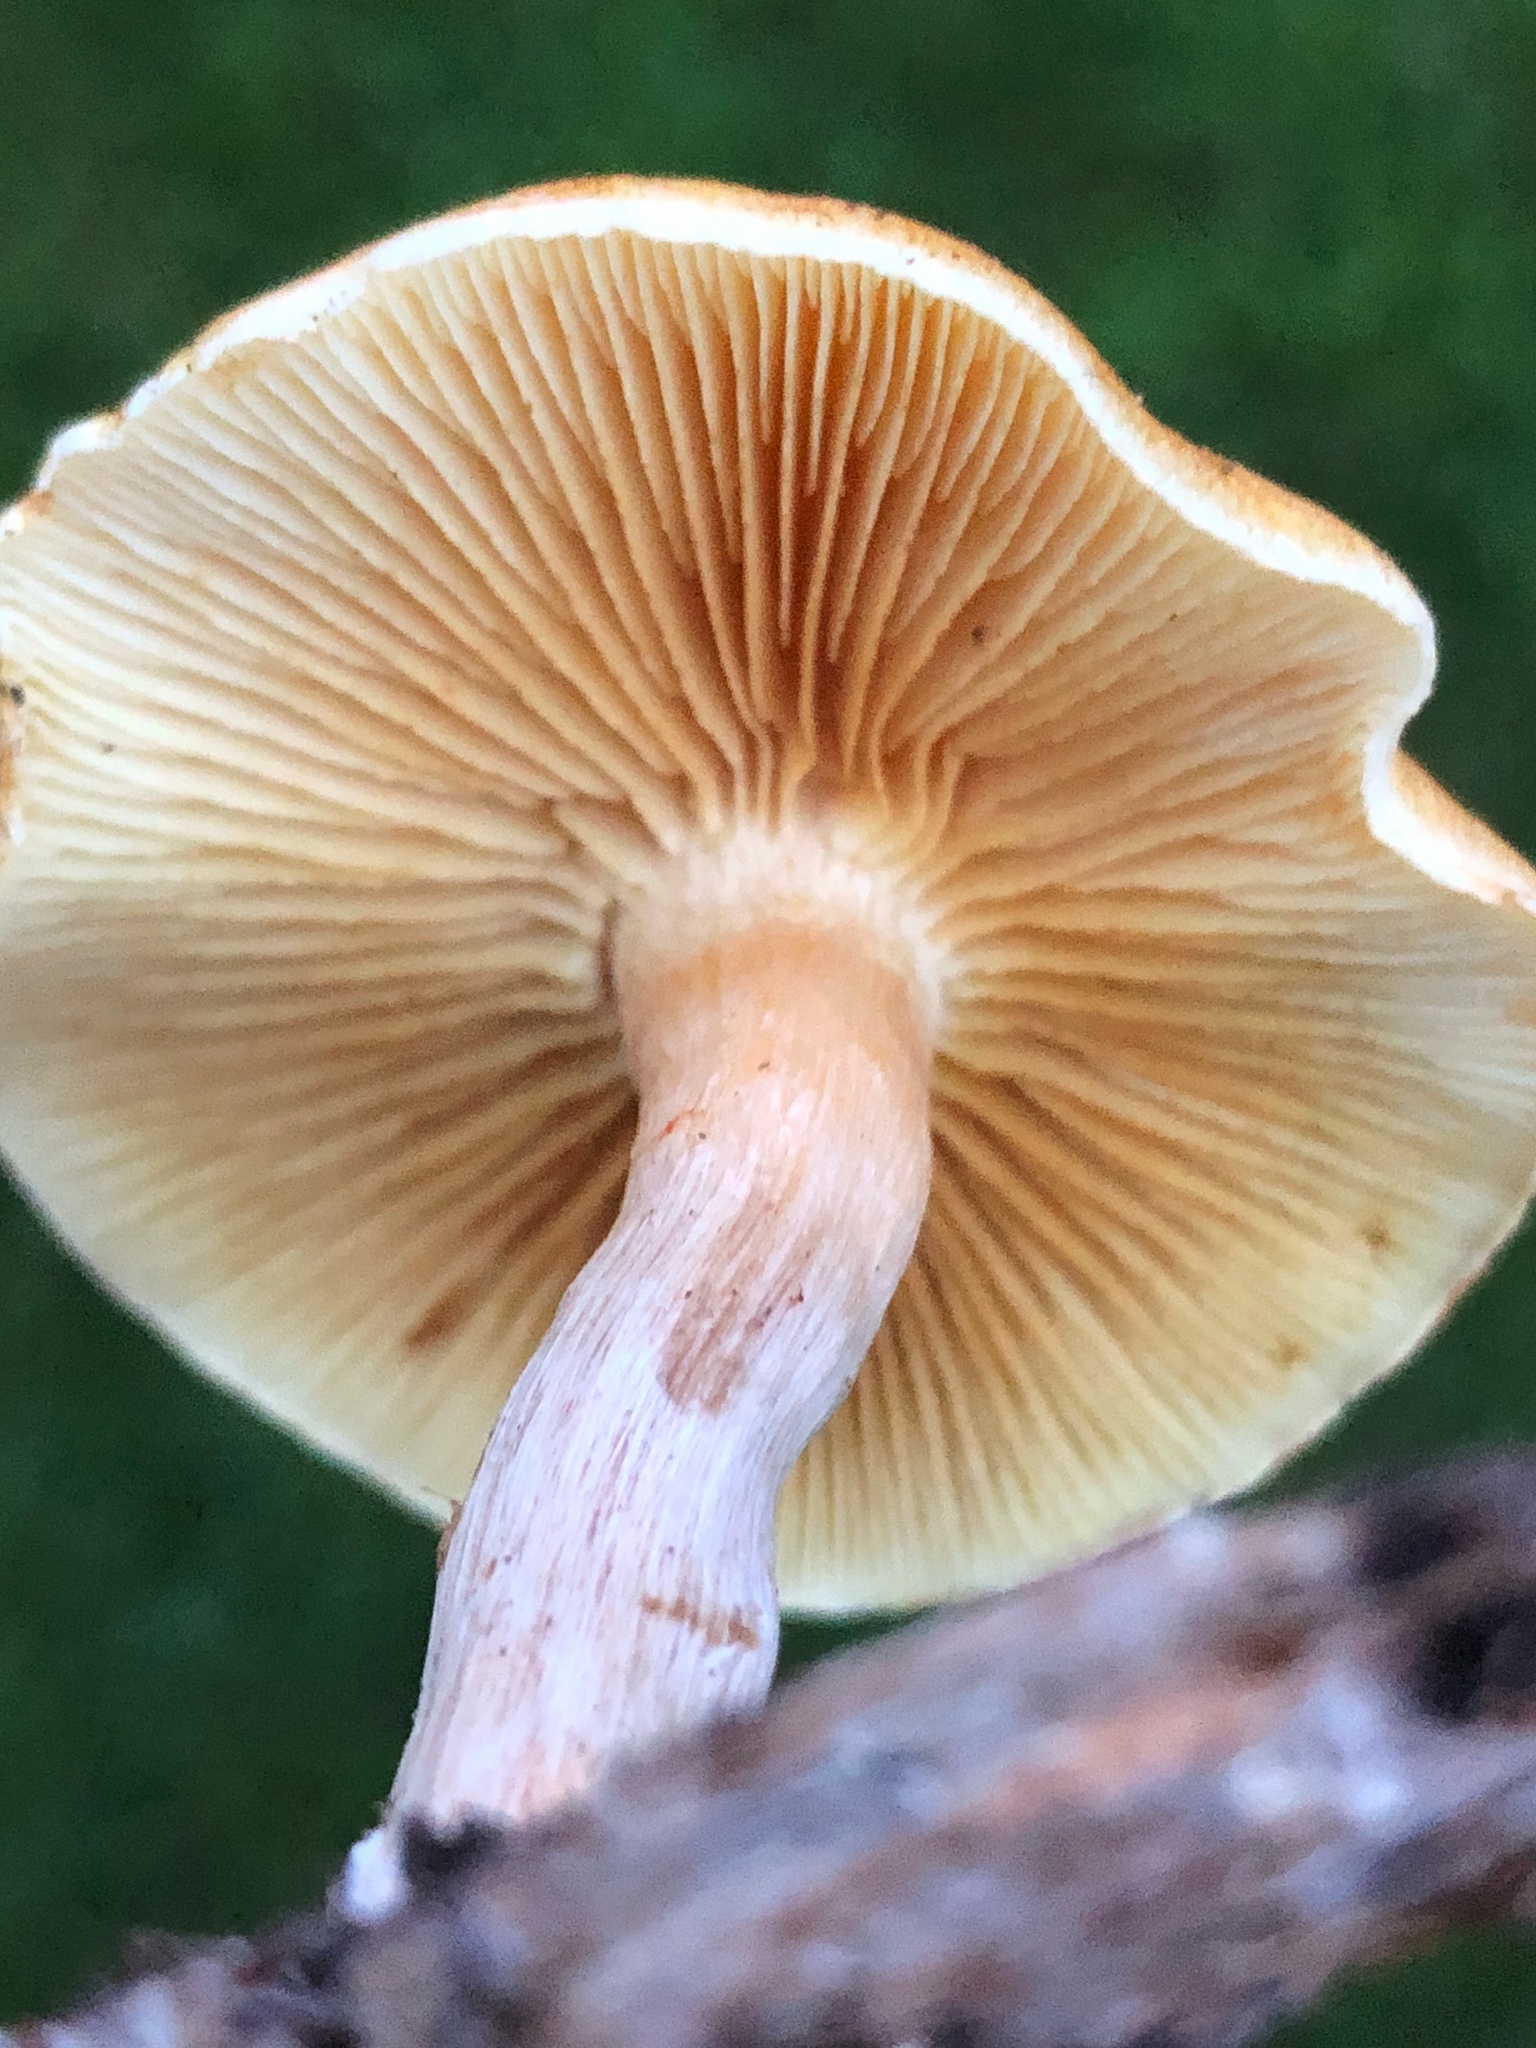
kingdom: Fungi
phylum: Basidiomycota
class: Agaricomycetes
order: Agaricales
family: Hymenogastraceae
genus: Gymnopilus
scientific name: Gymnopilus allantopus
